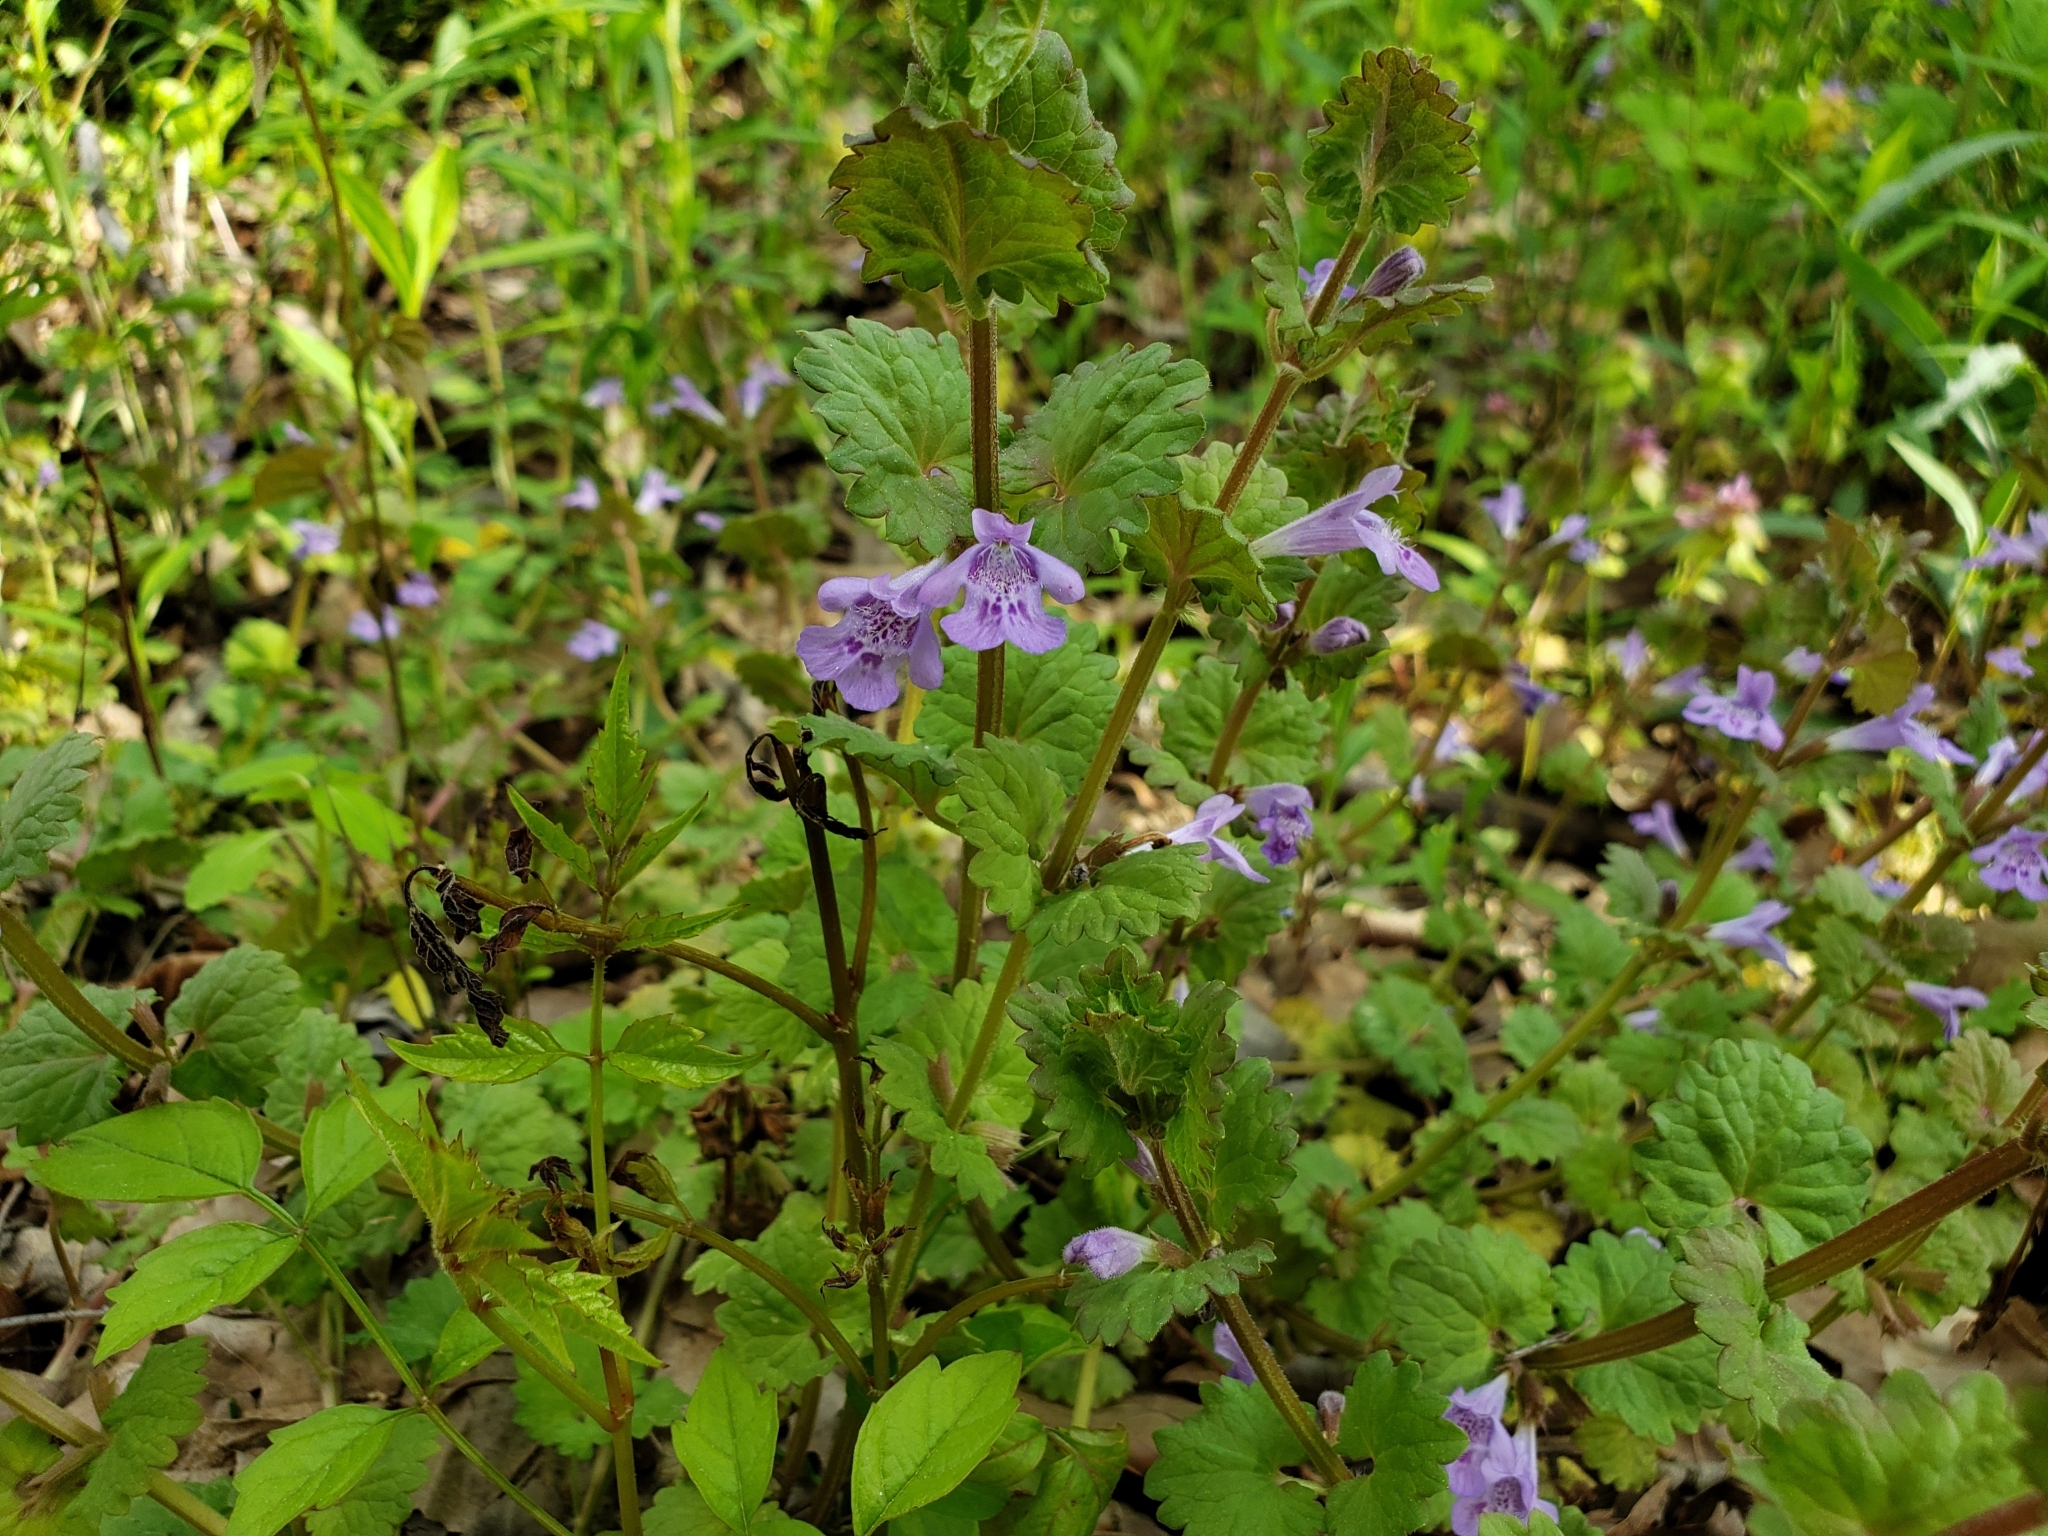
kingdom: Plantae
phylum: Tracheophyta
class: Magnoliopsida
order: Lamiales
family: Lamiaceae
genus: Glechoma
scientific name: Glechoma hederacea
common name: Ground ivy
